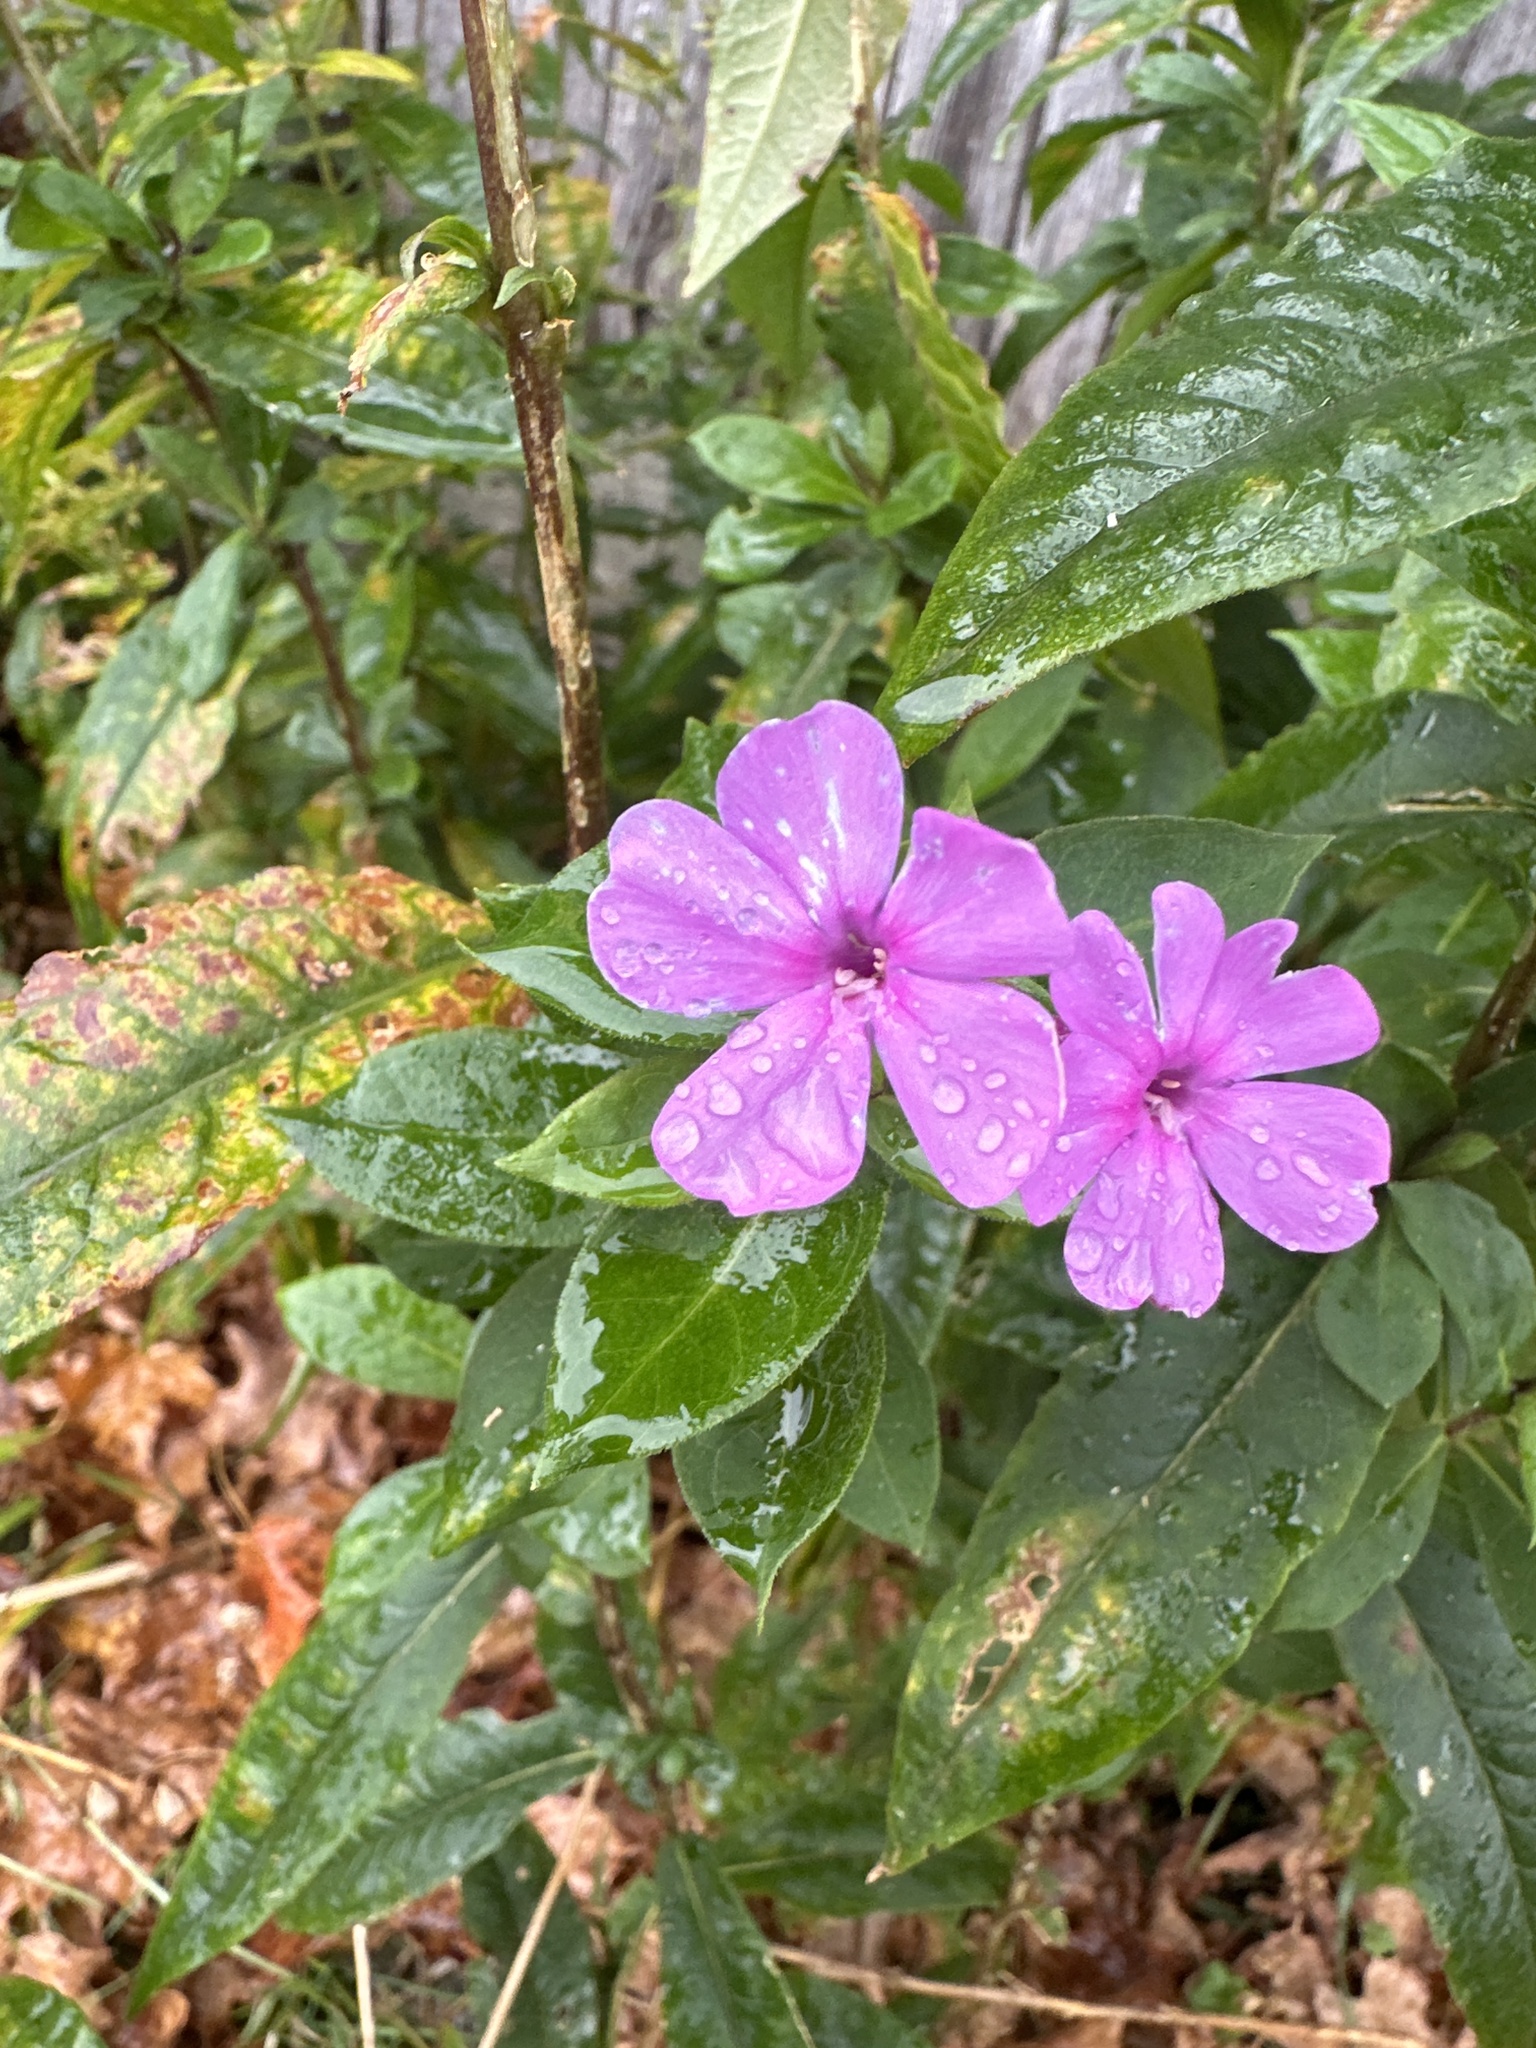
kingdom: Plantae
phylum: Tracheophyta
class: Magnoliopsida
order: Ericales
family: Polemoniaceae
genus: Phlox
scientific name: Phlox paniculata
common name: Fall phlox
